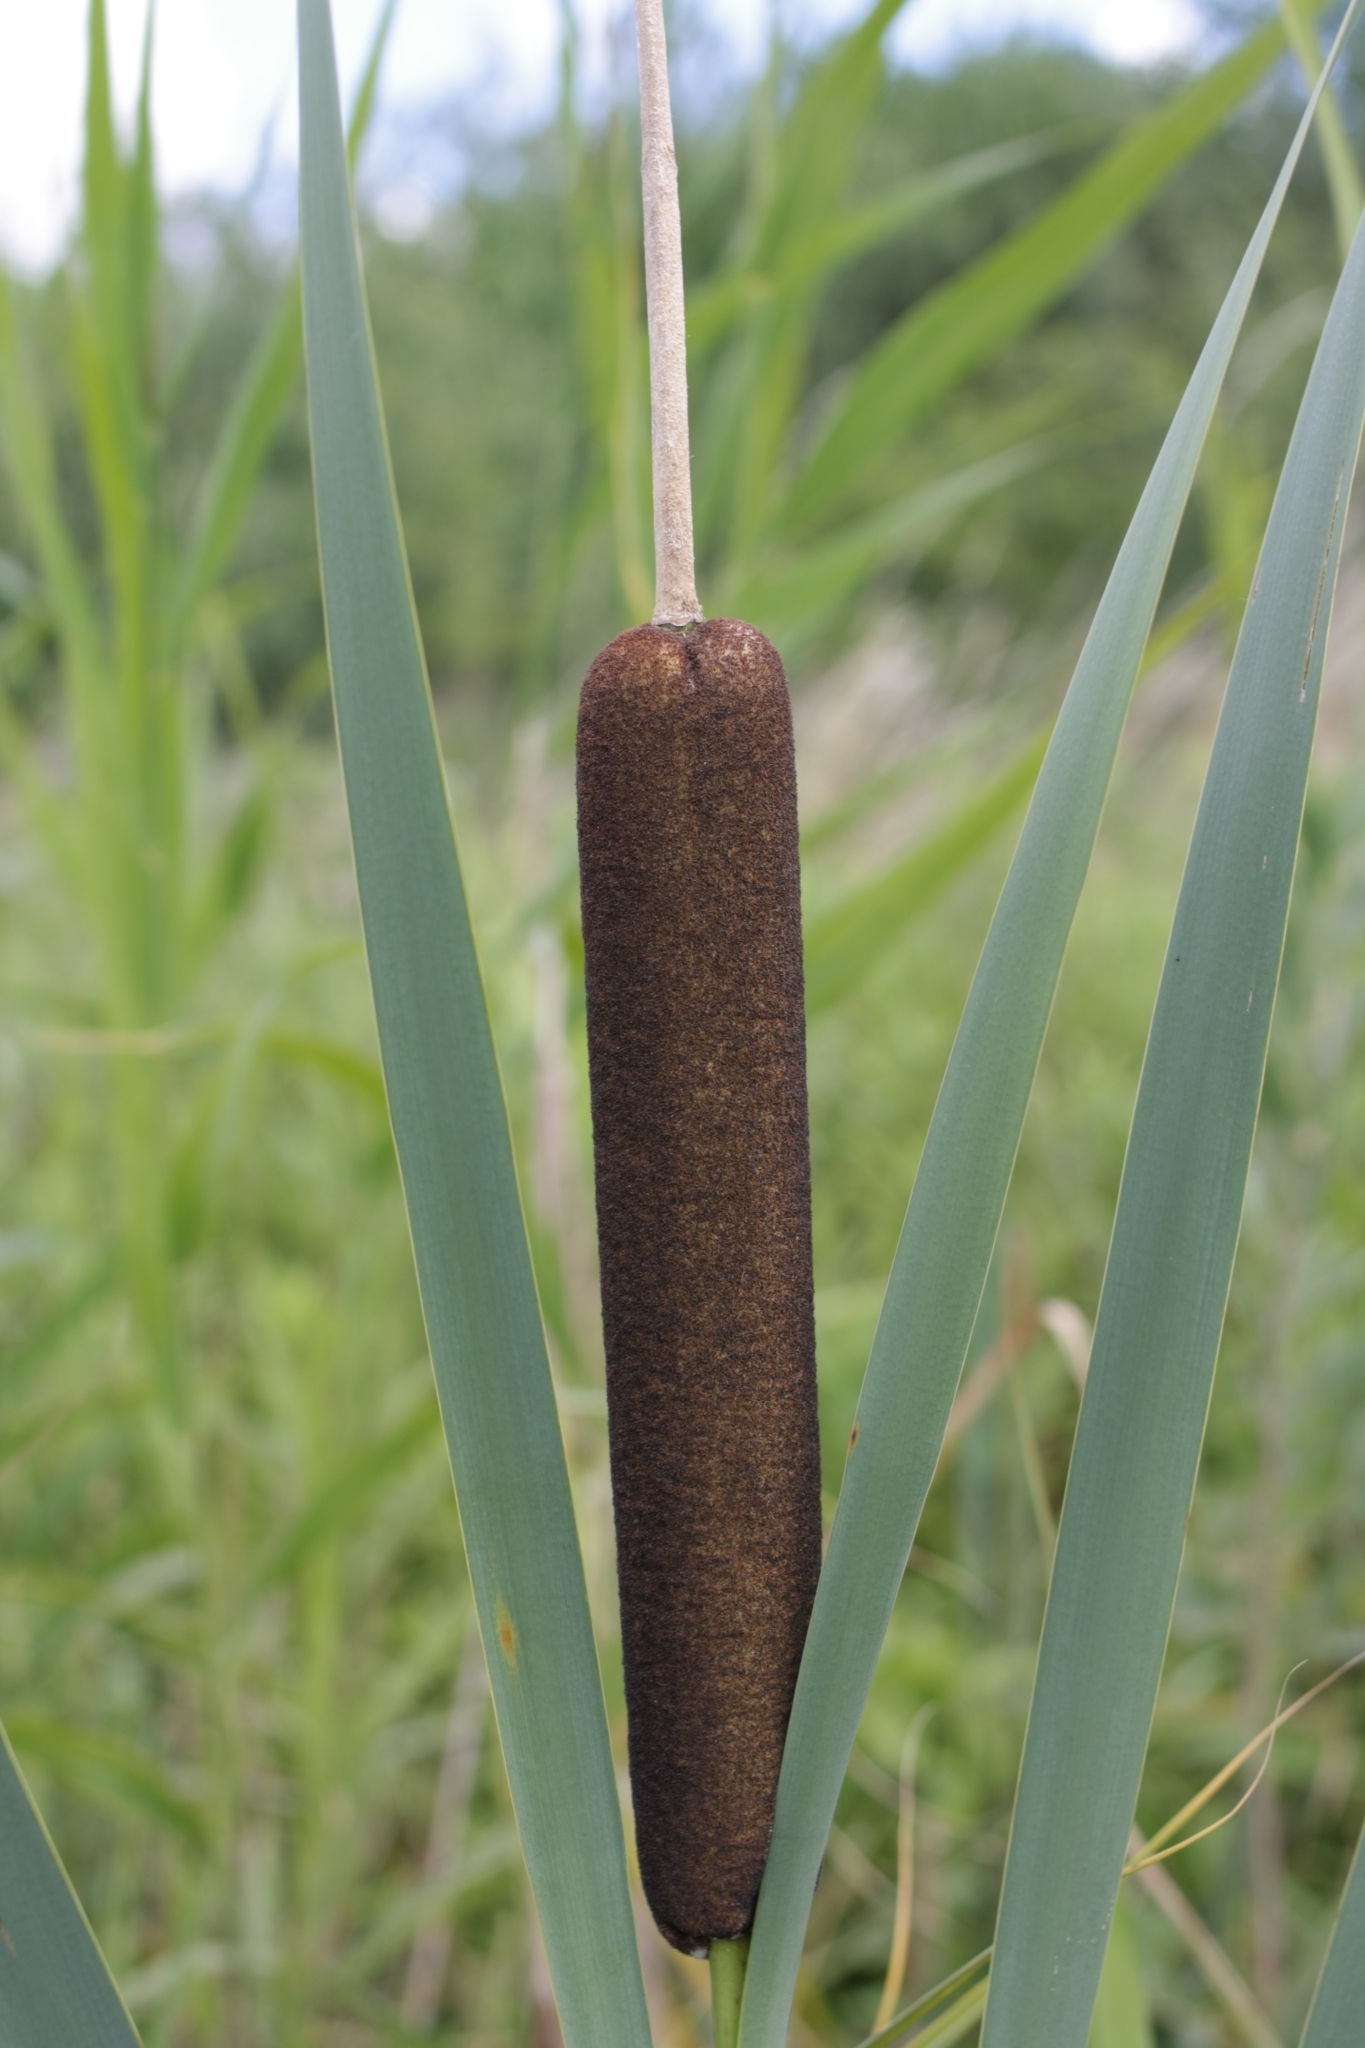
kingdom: Plantae
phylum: Tracheophyta
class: Liliopsida
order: Poales
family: Typhaceae
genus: Typha
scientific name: Typha latifolia
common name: Broadleaf cattail
